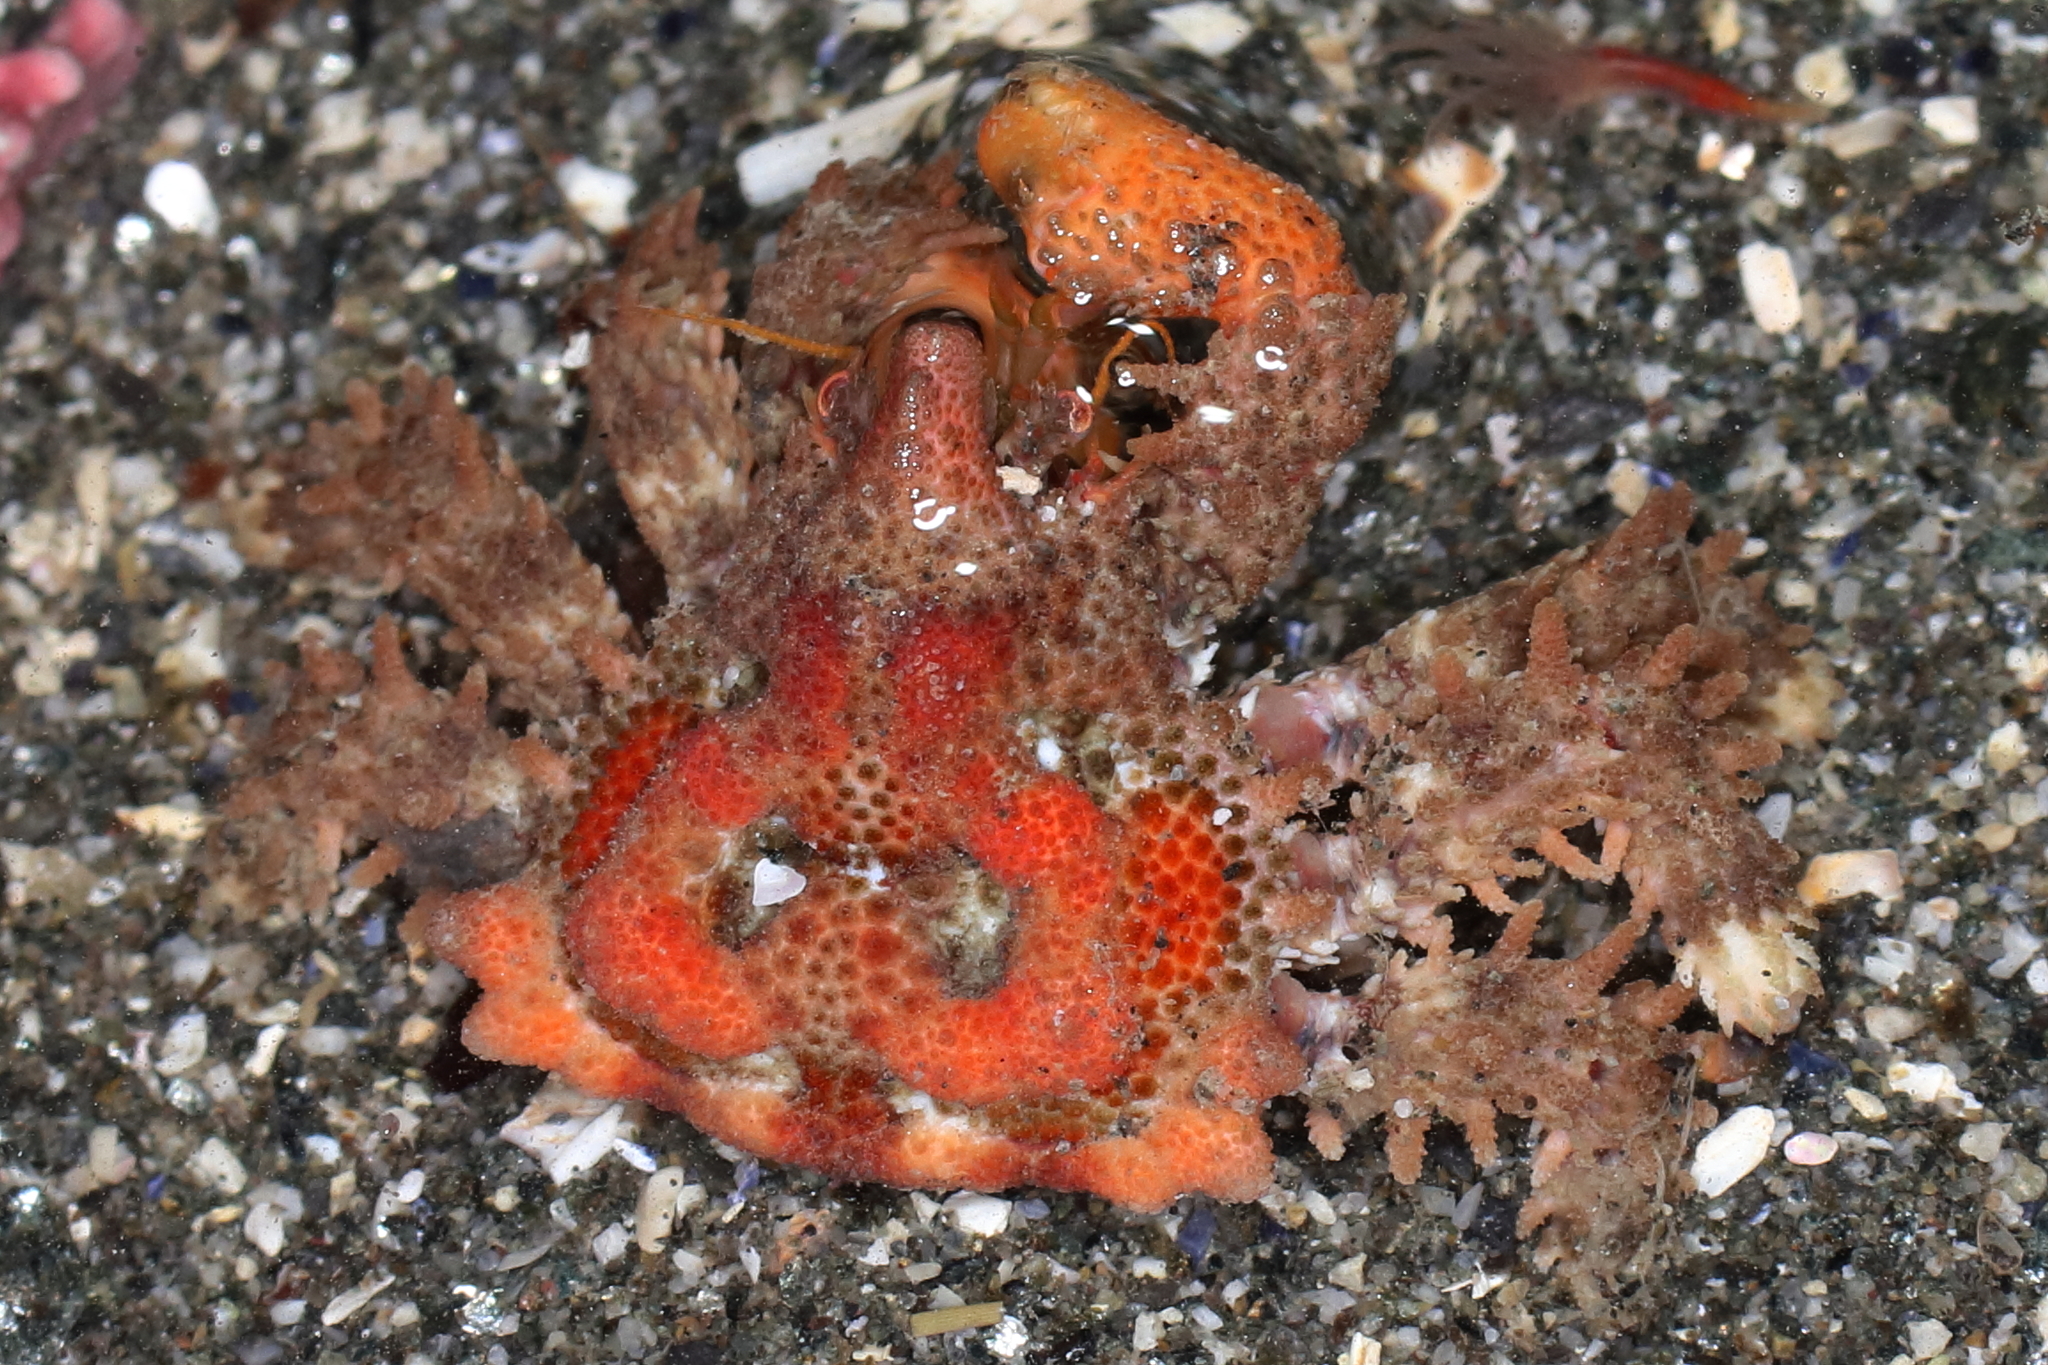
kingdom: Animalia
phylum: Arthropoda
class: Malacostraca
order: Decapoda
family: Lithodidae
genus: Phyllolithodes
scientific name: Phyllolithodes papillosus
